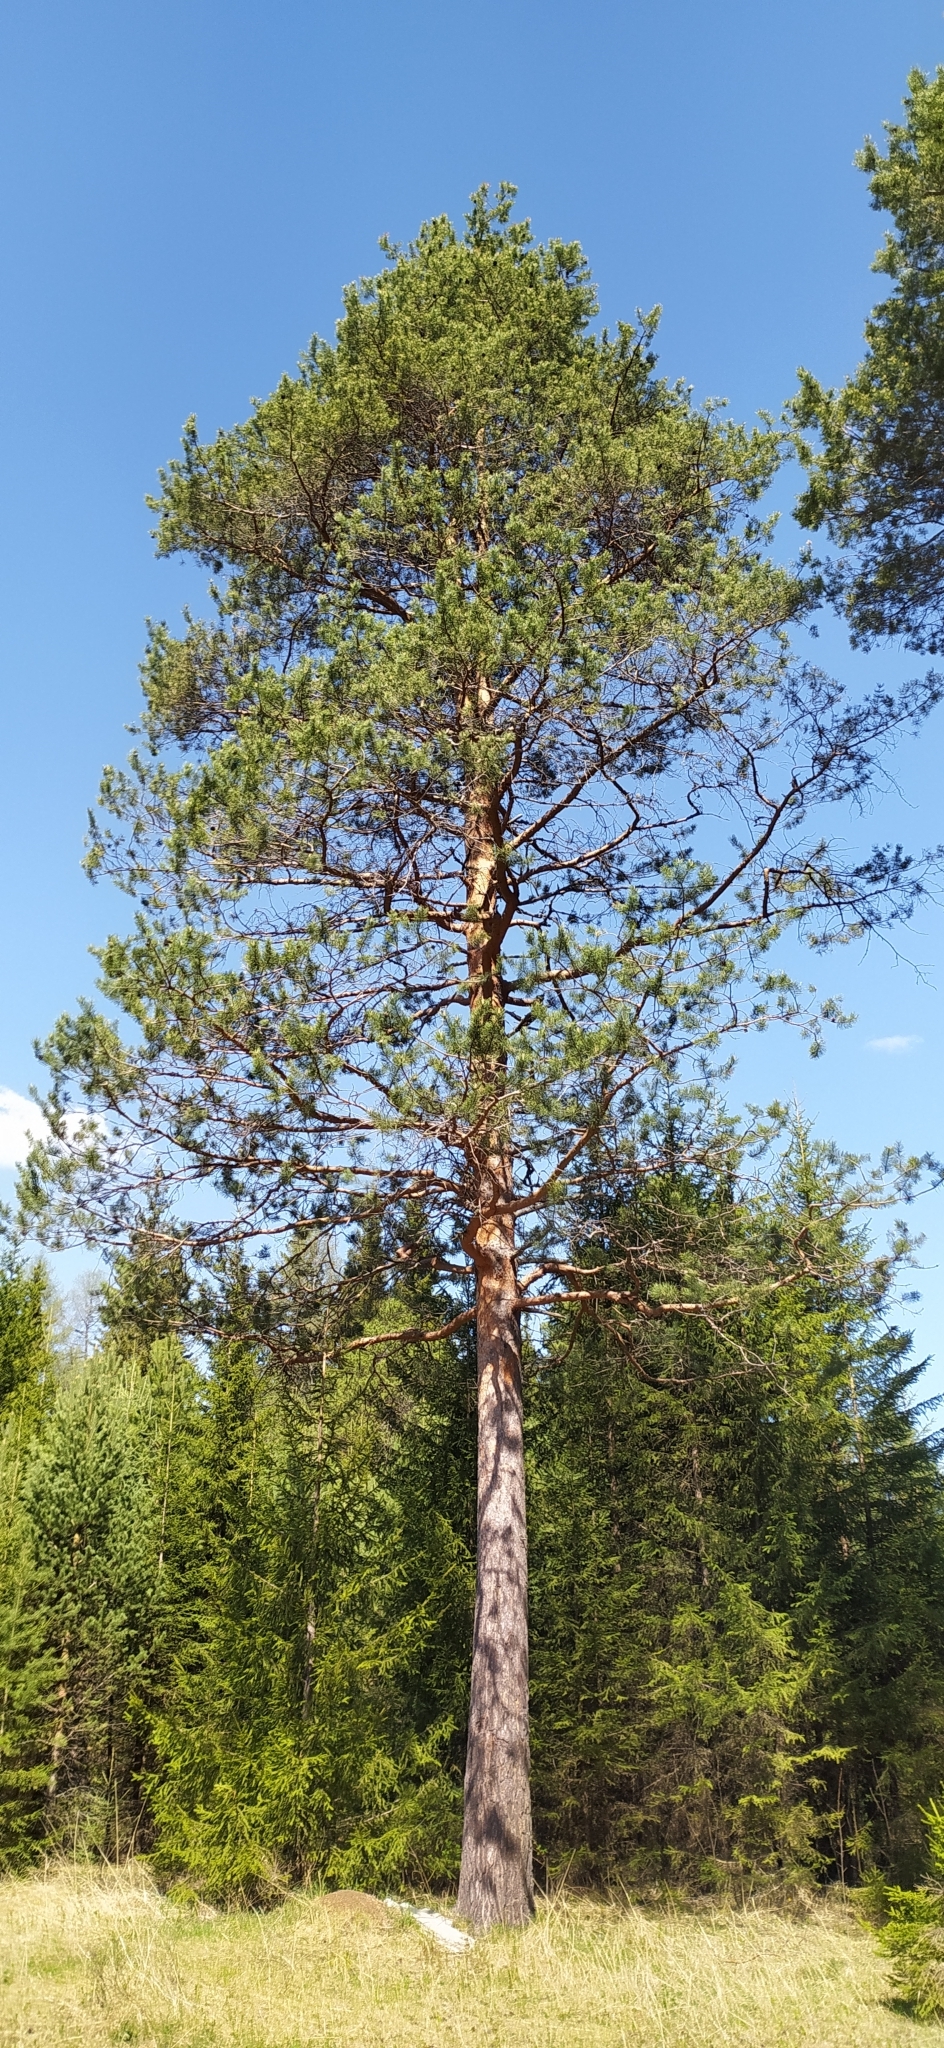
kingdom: Plantae
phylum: Tracheophyta
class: Pinopsida
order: Pinales
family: Pinaceae
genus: Pinus
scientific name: Pinus sylvestris
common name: Scots pine
